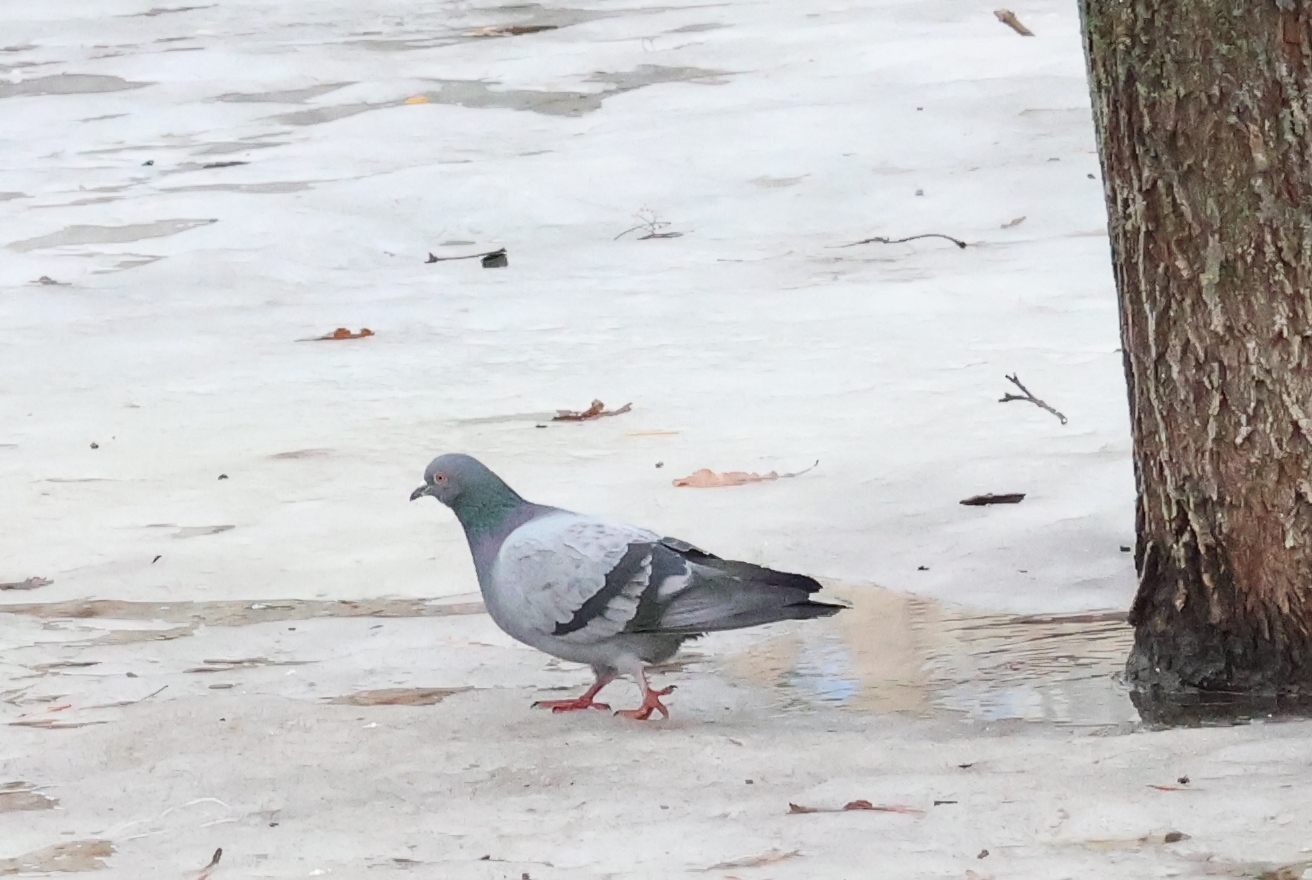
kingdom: Animalia
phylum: Chordata
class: Aves
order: Columbiformes
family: Columbidae
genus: Columba
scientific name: Columba livia
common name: Rock pigeon
